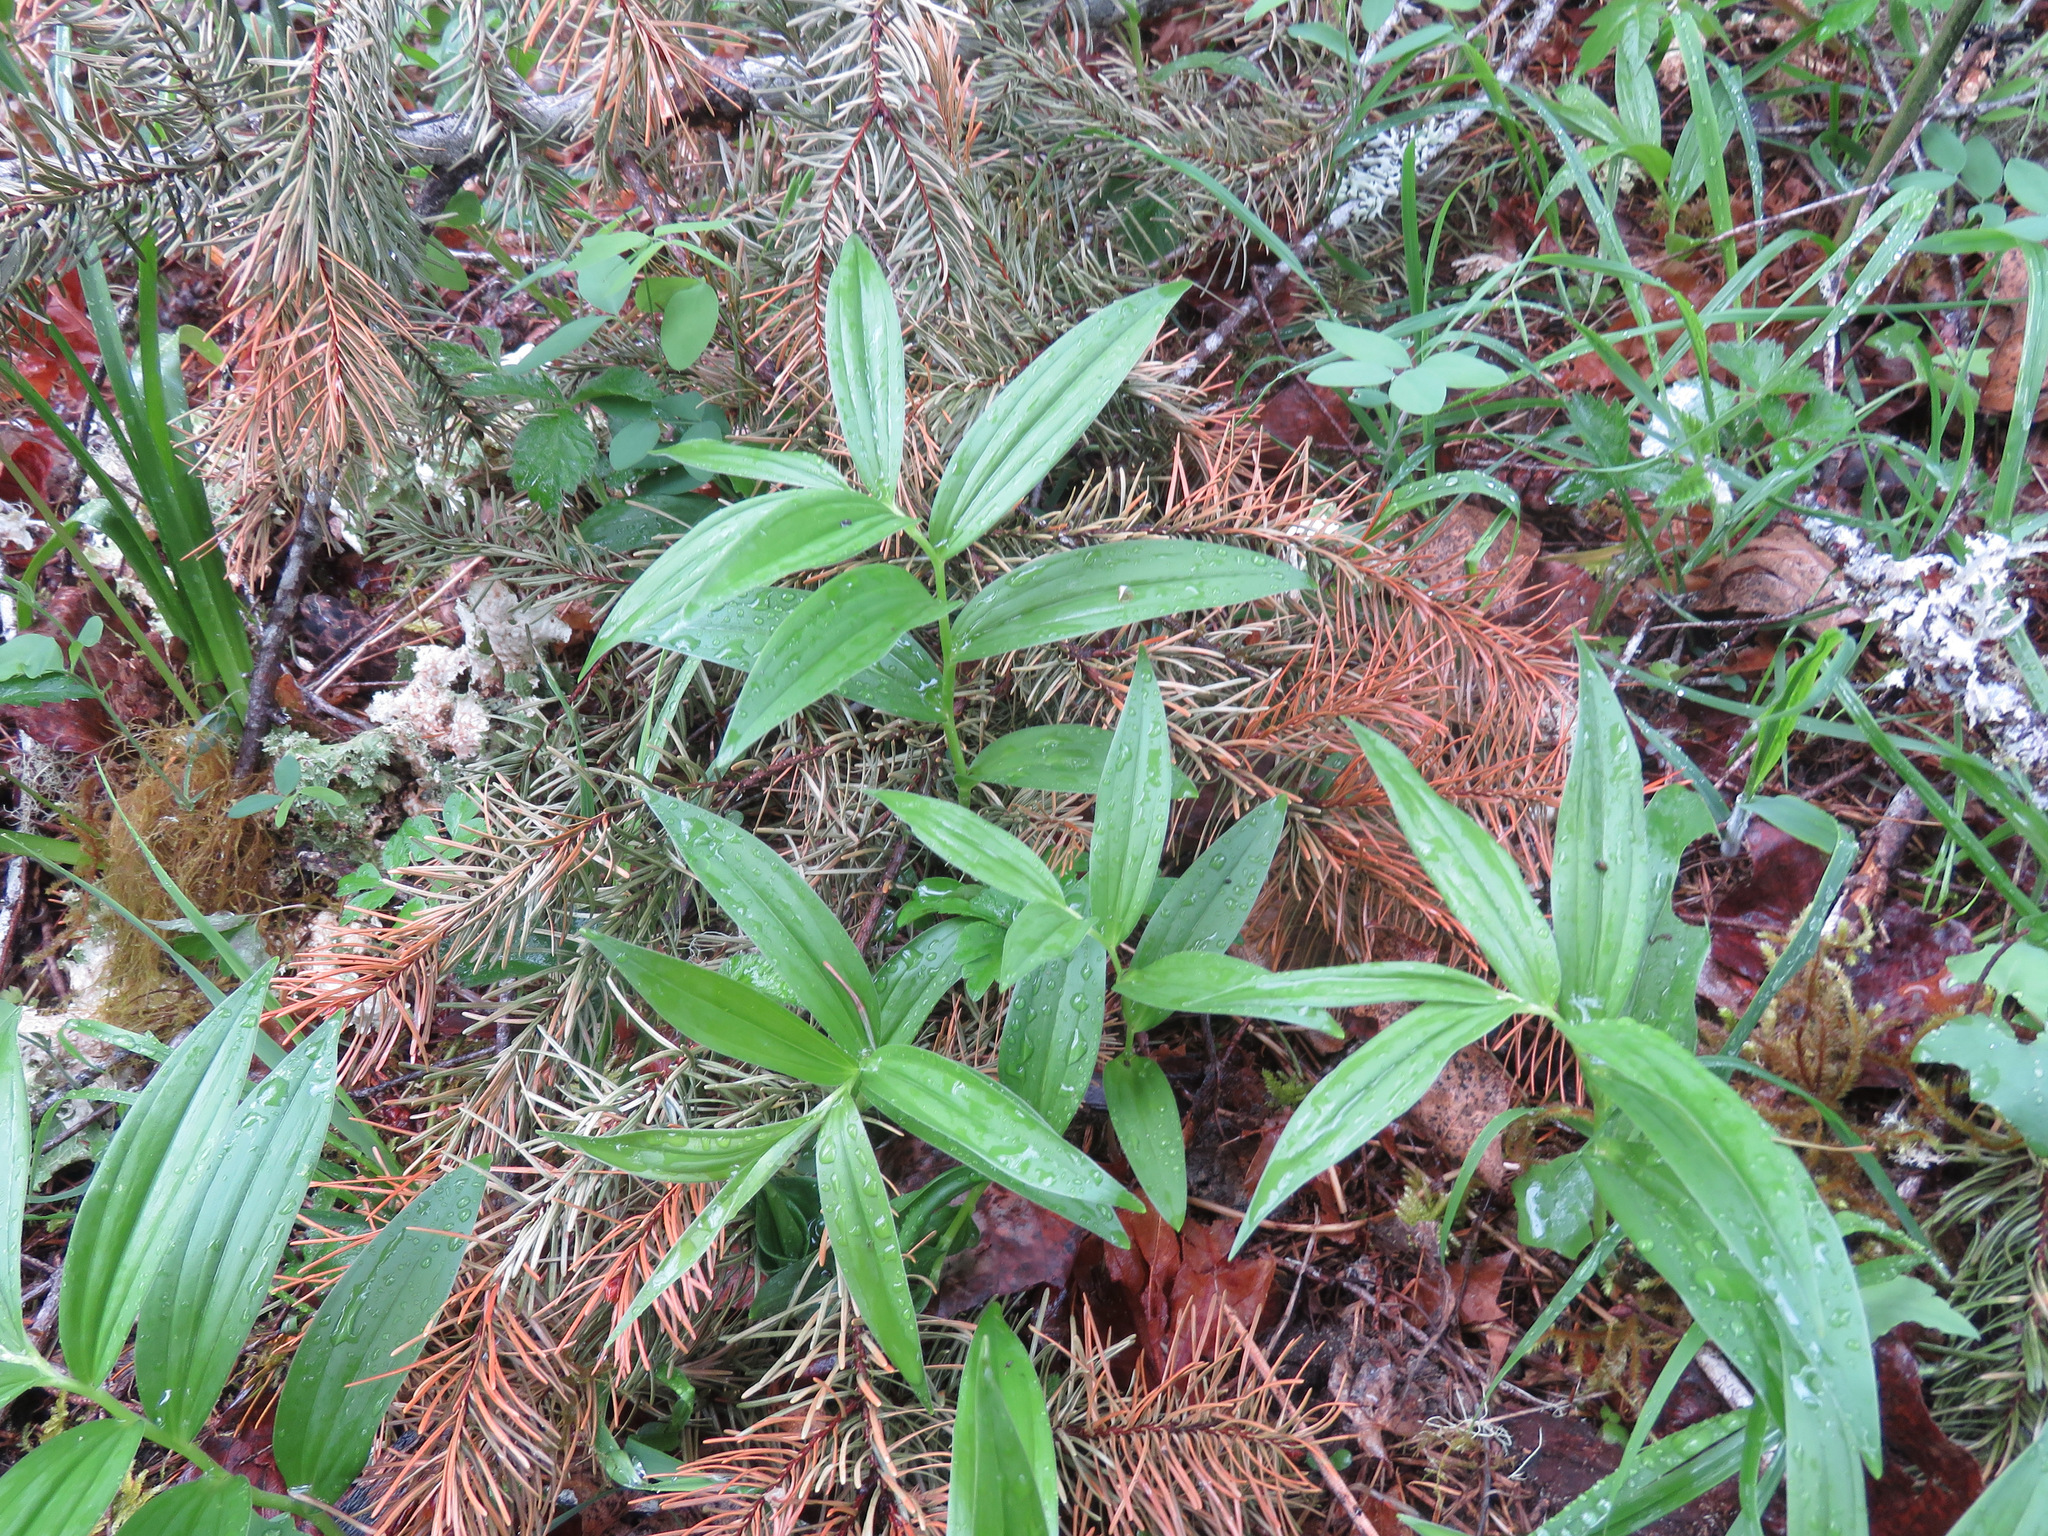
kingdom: Plantae
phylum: Tracheophyta
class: Liliopsida
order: Asparagales
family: Asparagaceae
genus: Maianthemum
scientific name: Maianthemum stellatum
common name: Little false solomon's seal
